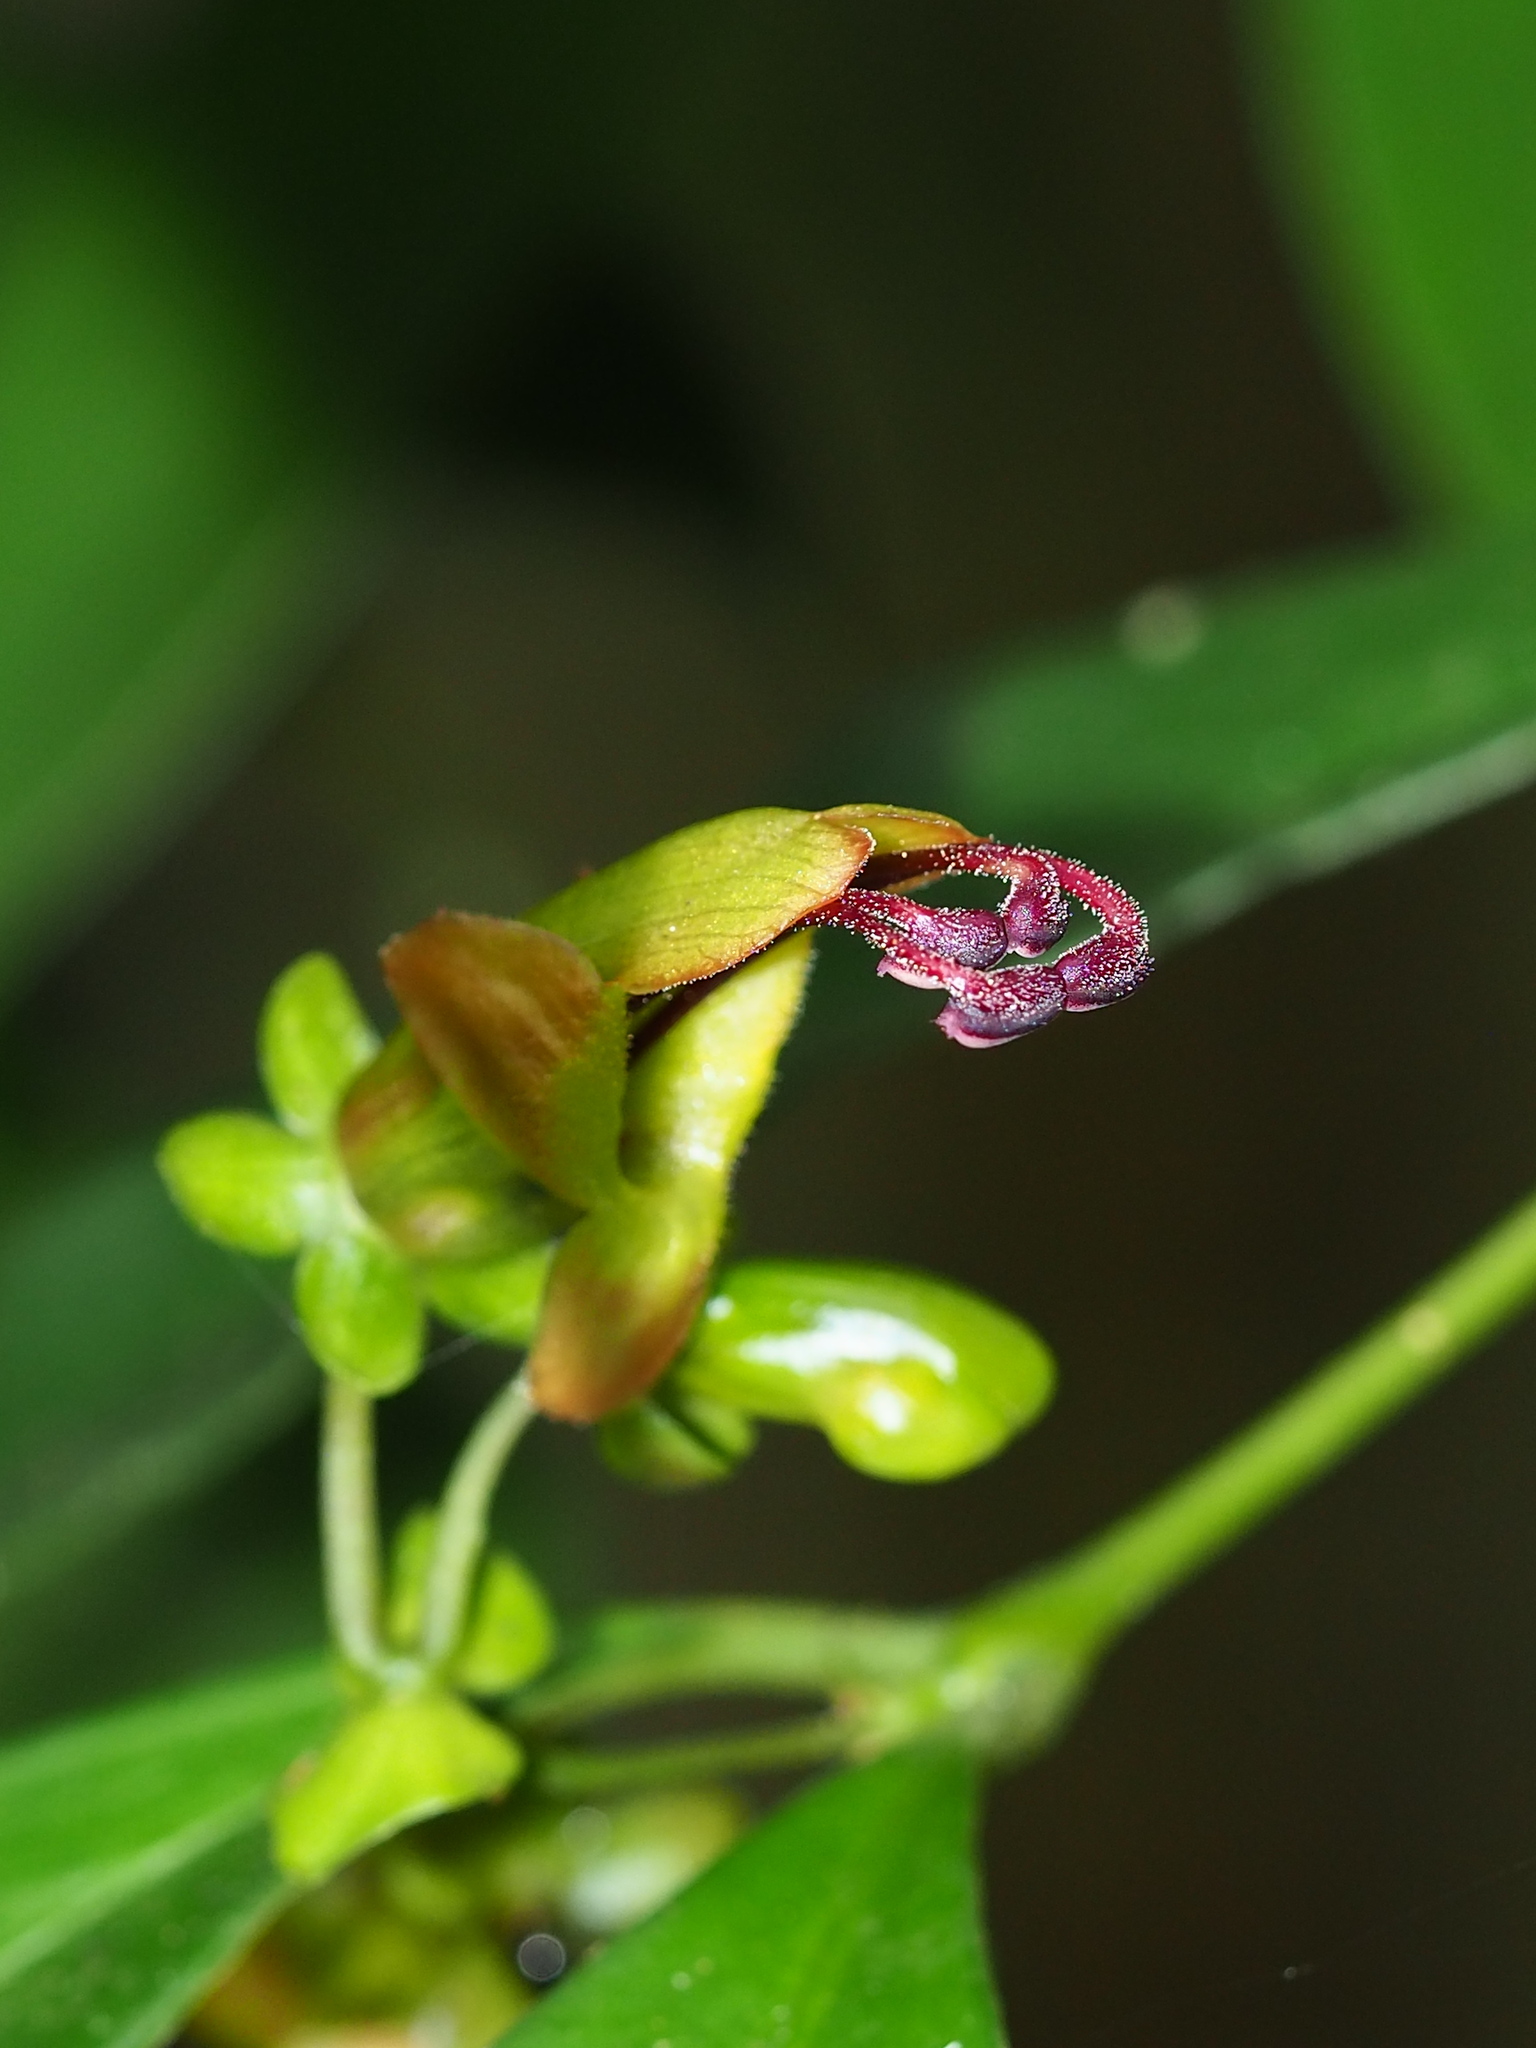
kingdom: Plantae
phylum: Tracheophyta
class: Magnoliopsida
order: Lamiales
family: Gesneriaceae
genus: Aeschynanthus
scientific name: Aeschynanthus acuminatus
